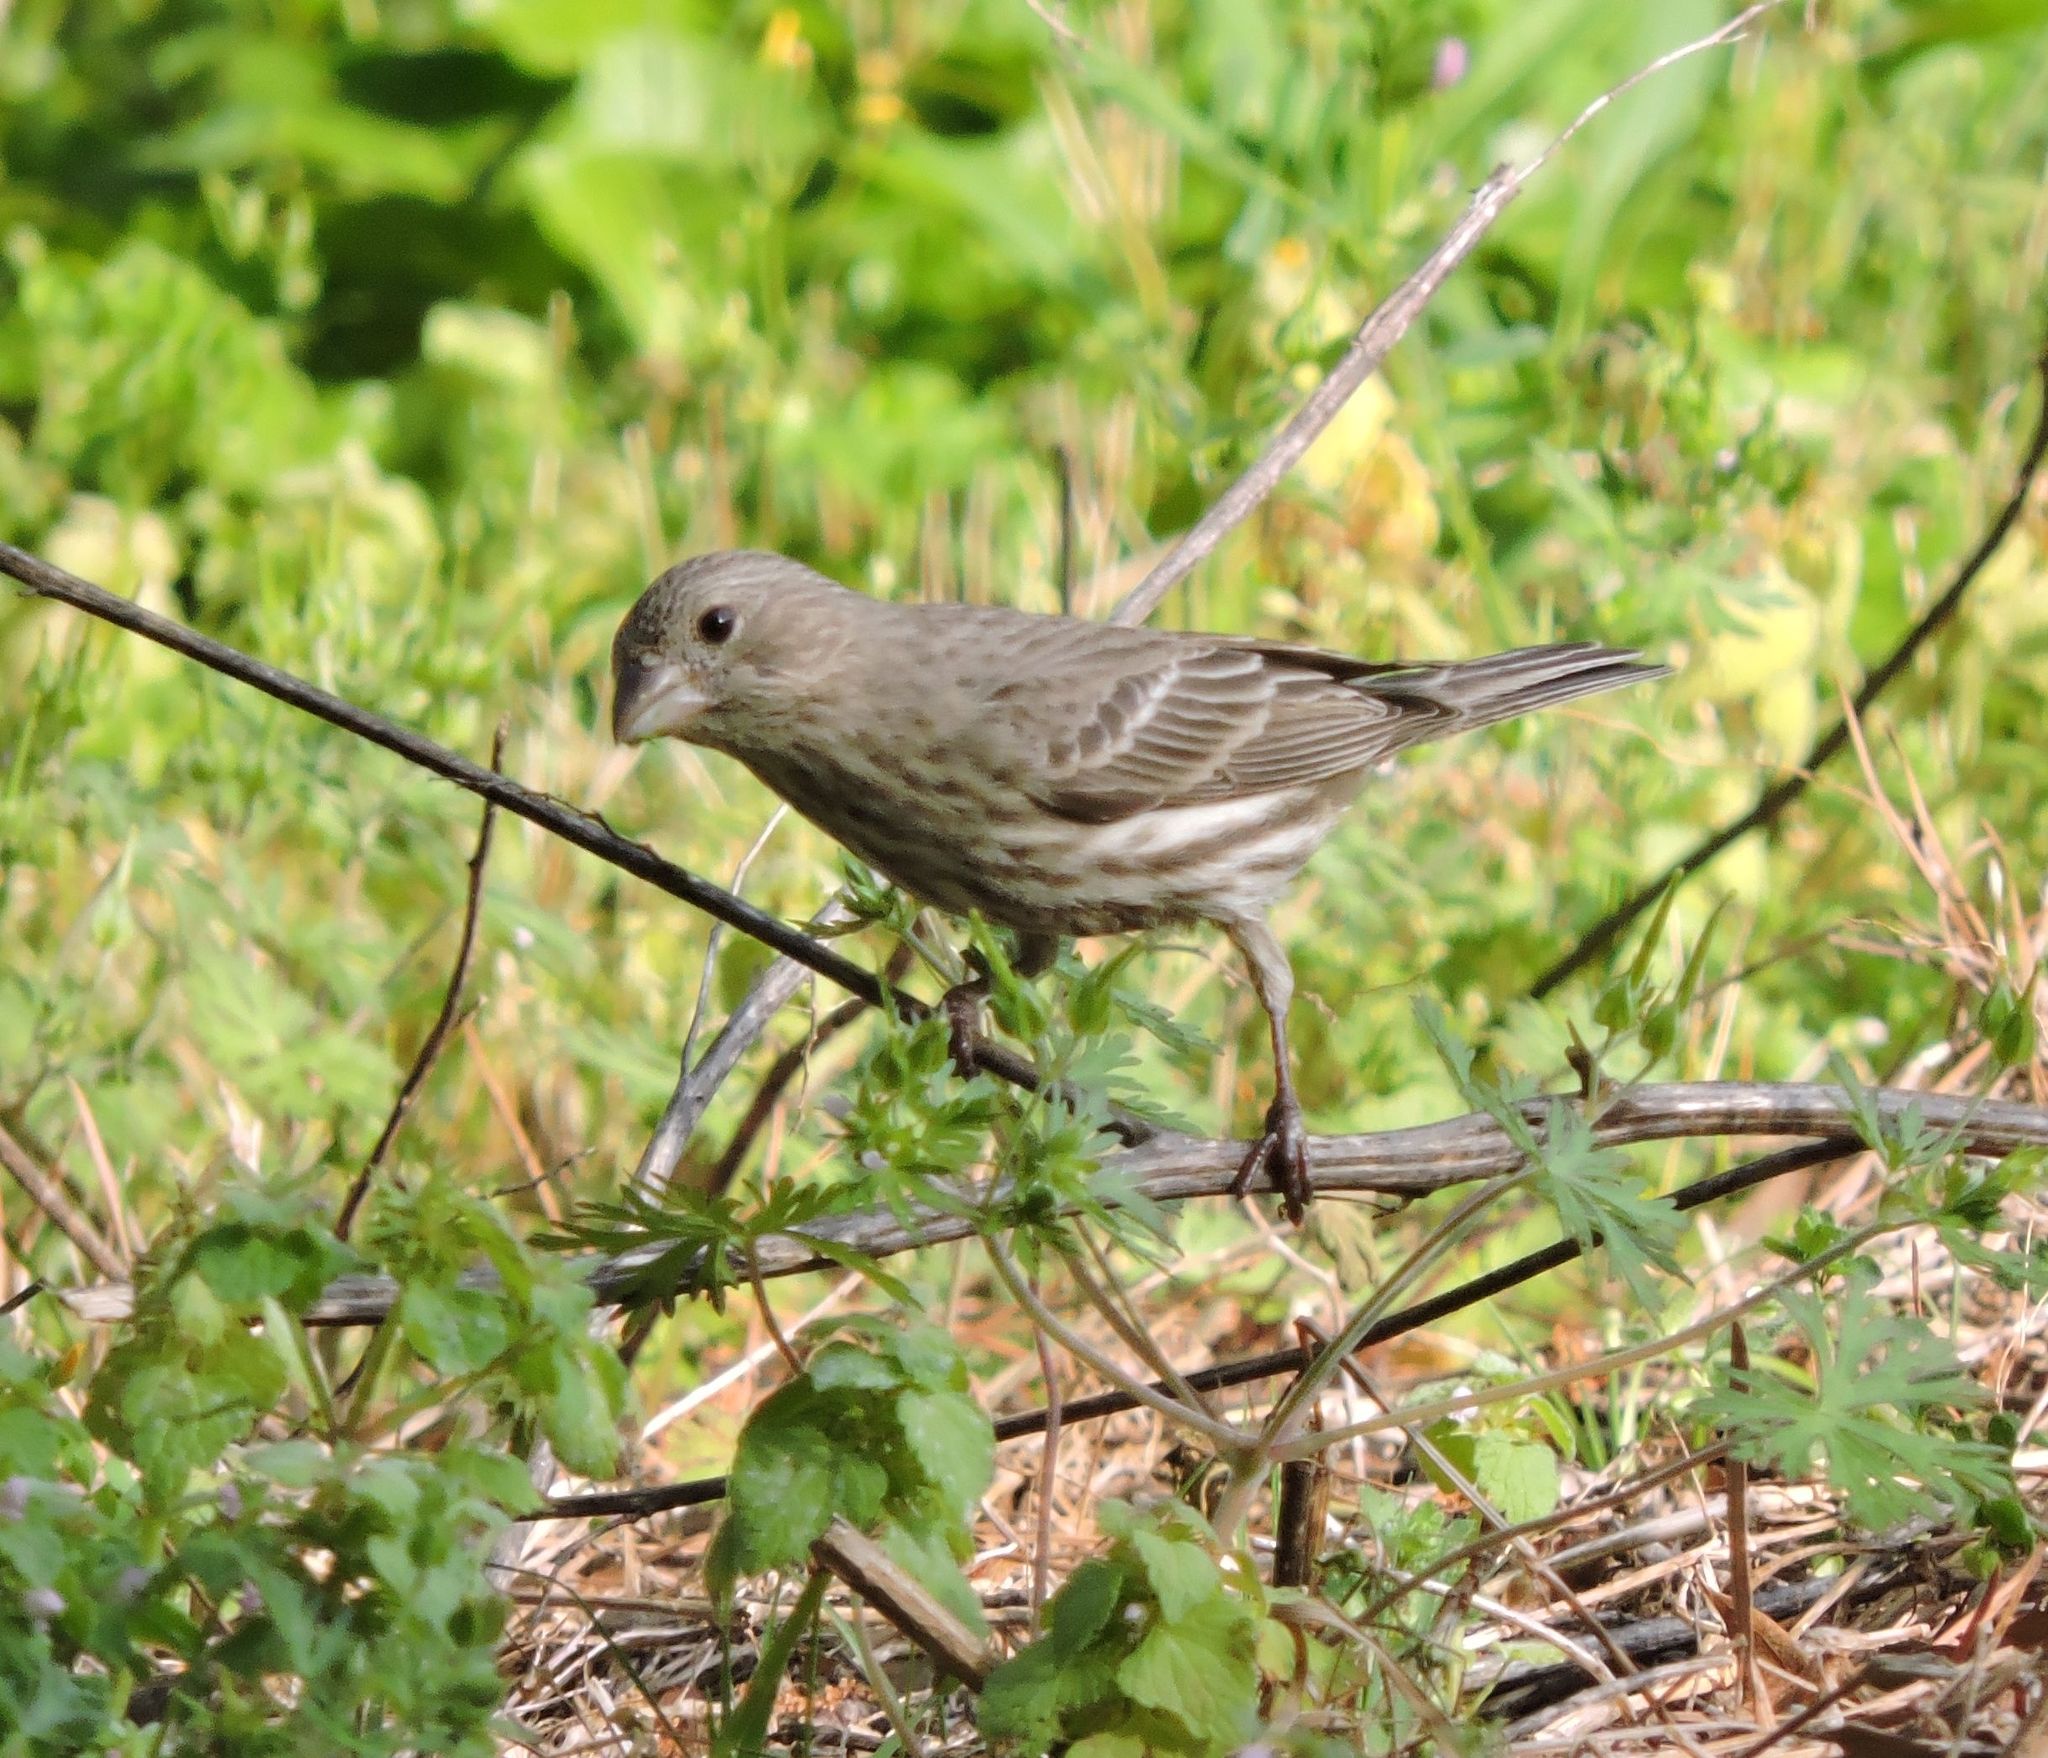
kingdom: Animalia
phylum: Chordata
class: Aves
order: Passeriformes
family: Fringillidae
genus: Haemorhous
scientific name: Haemorhous mexicanus
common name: House finch
